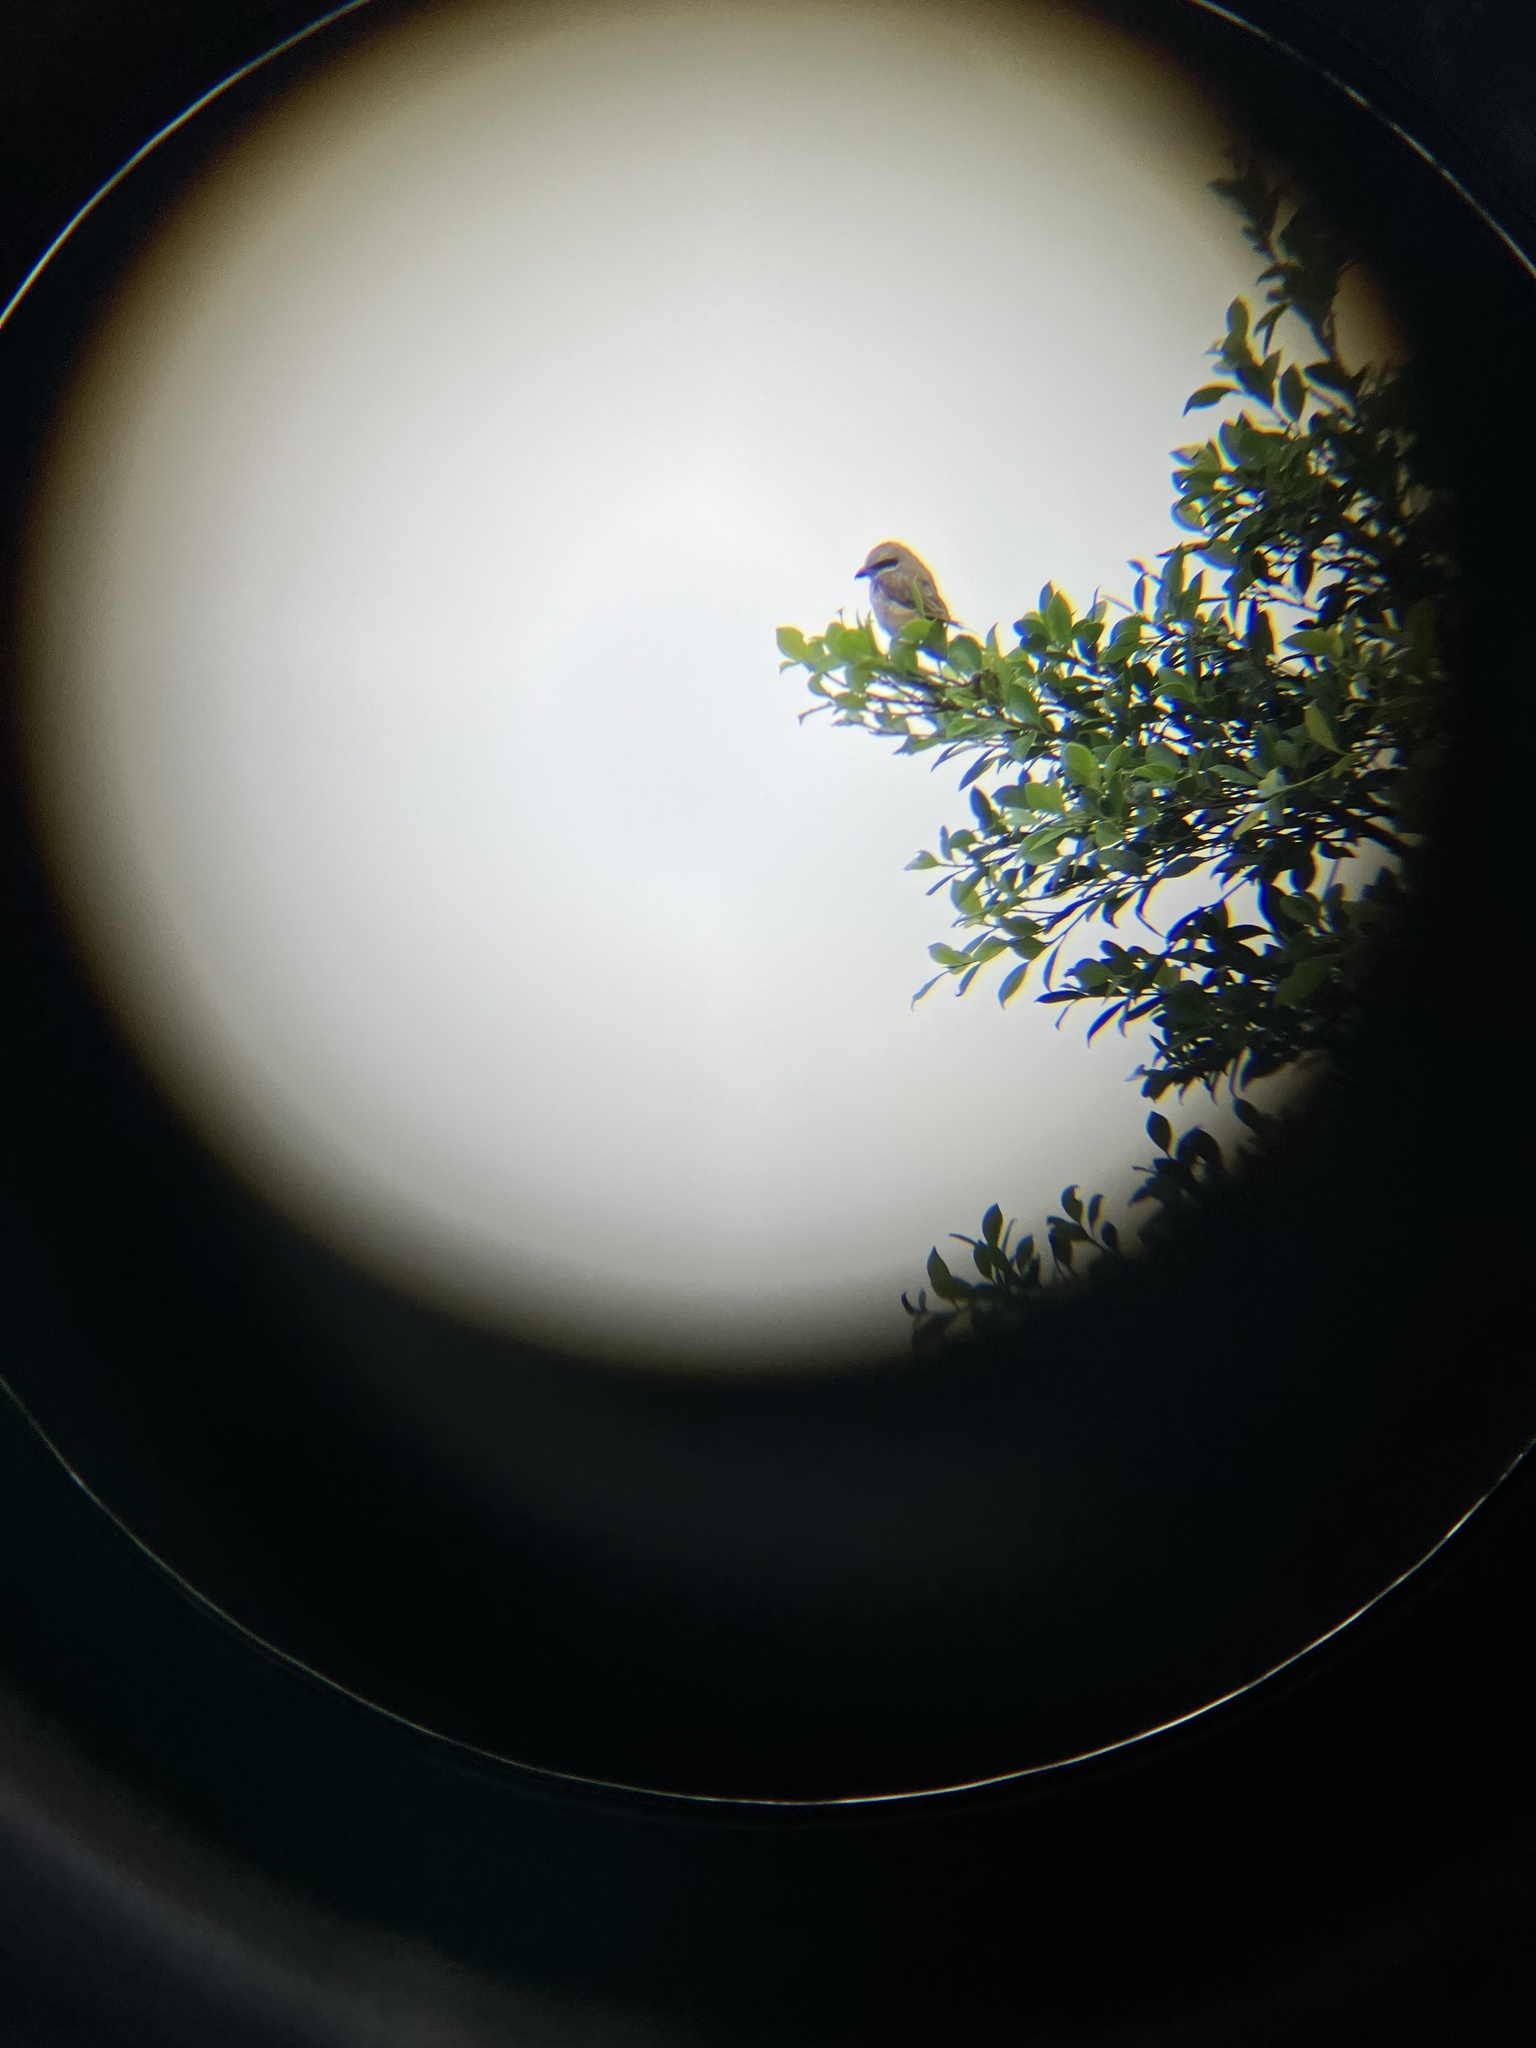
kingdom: Animalia
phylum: Chordata
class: Aves
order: Passeriformes
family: Laniidae
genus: Lanius
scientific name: Lanius cristatus
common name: Brown shrike
